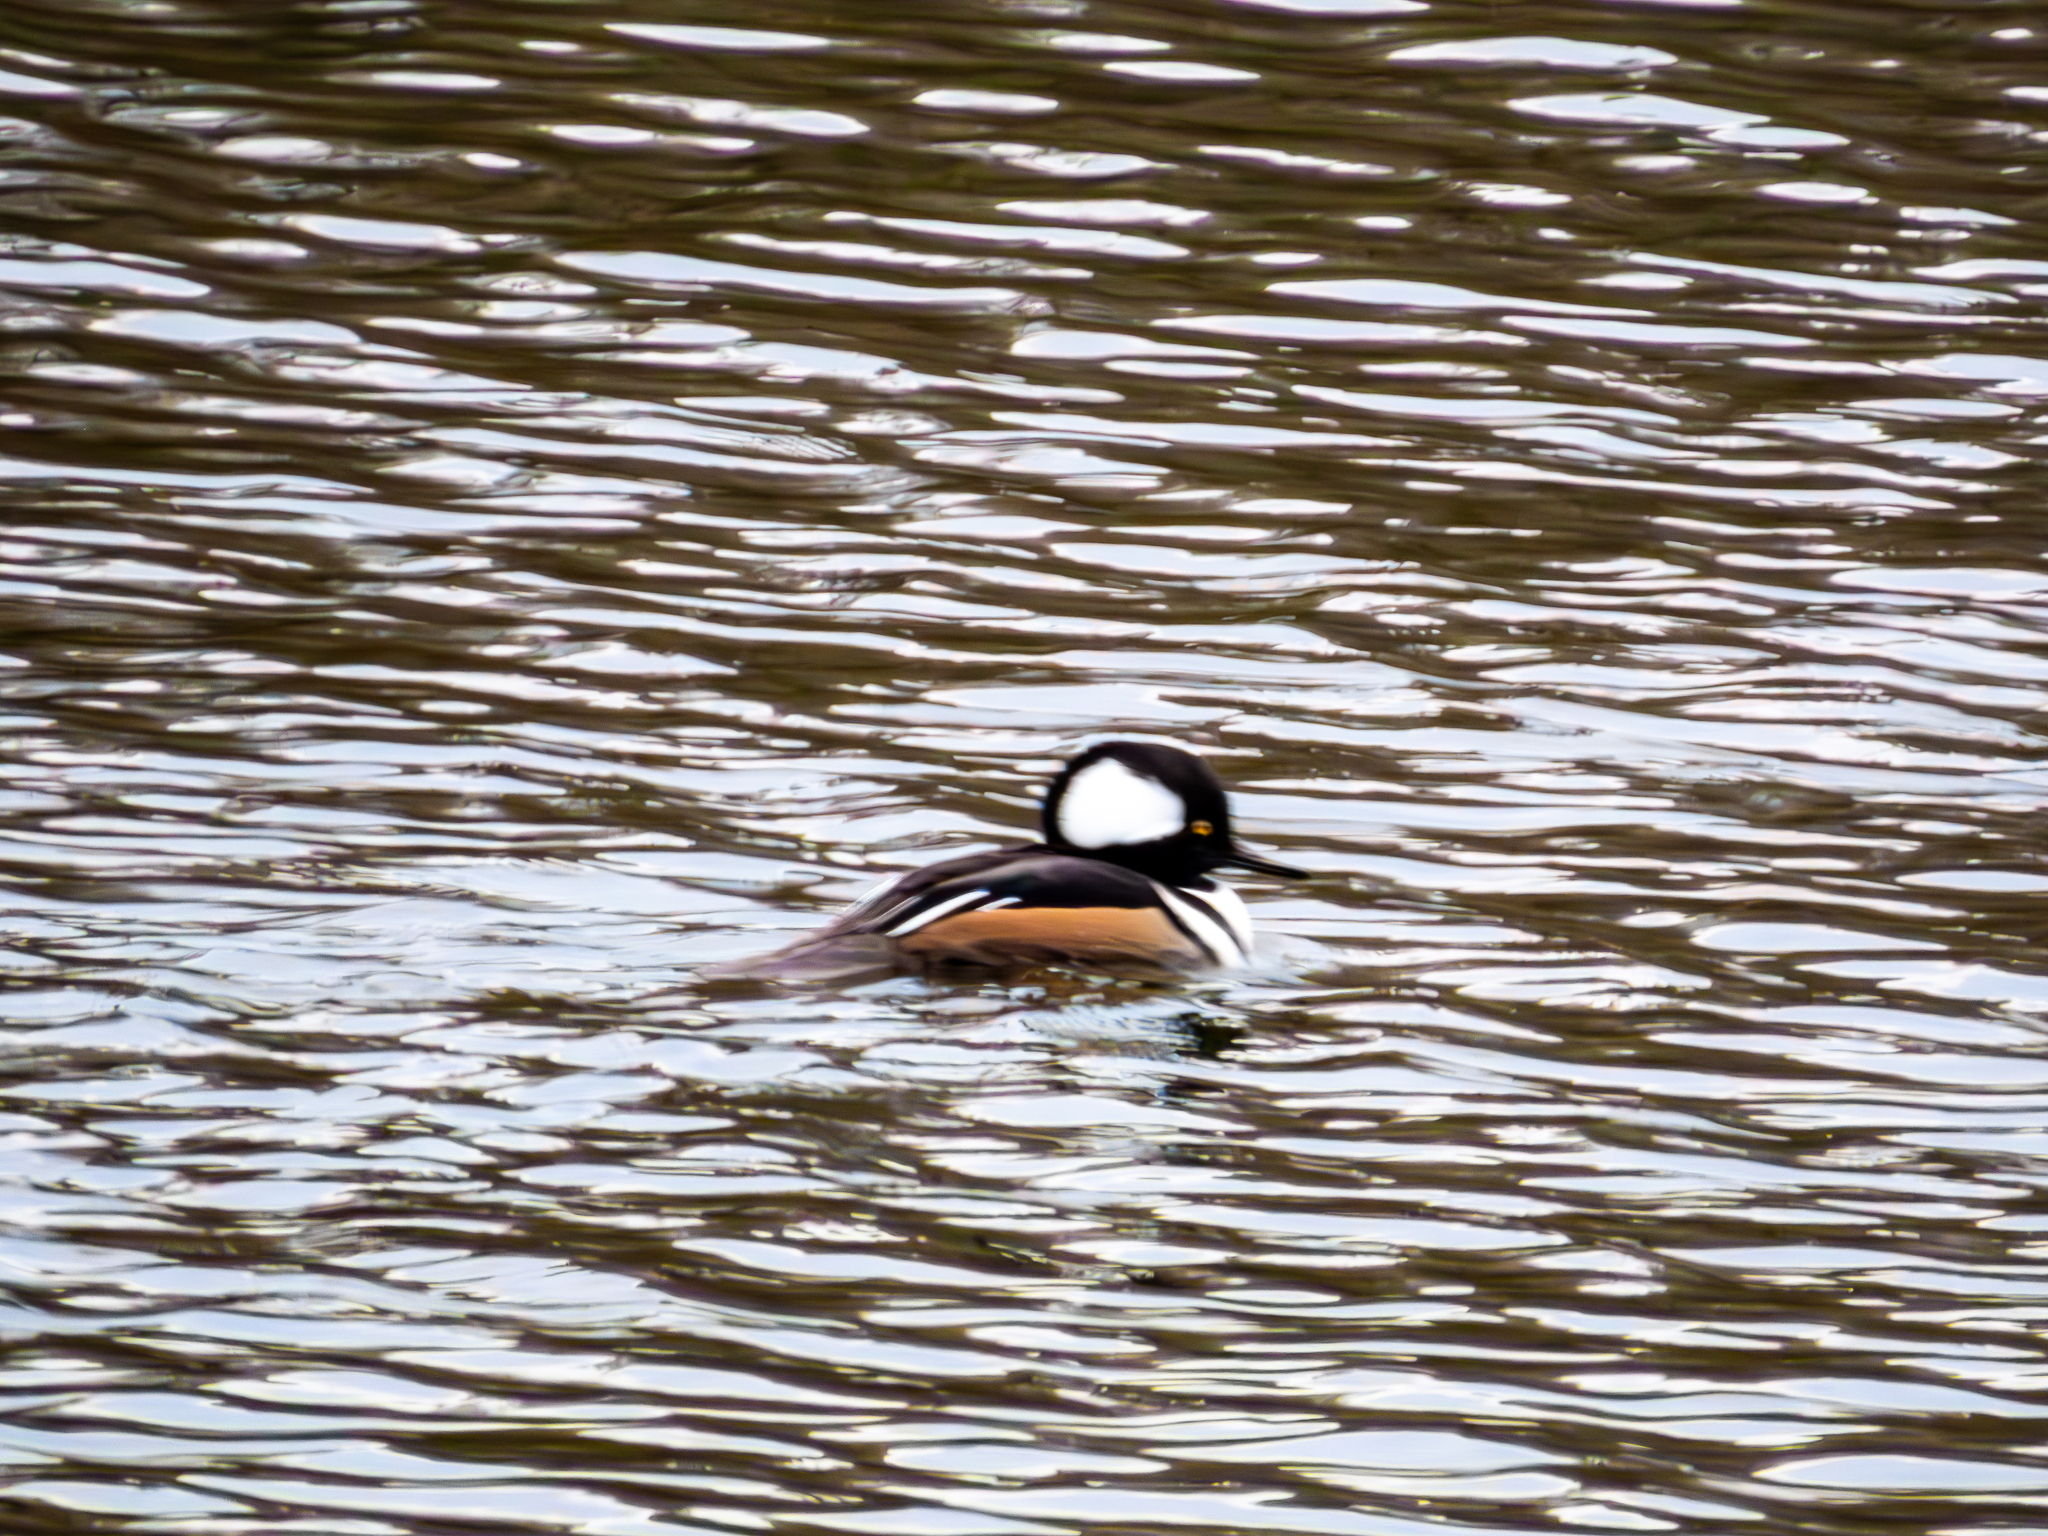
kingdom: Animalia
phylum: Chordata
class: Aves
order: Anseriformes
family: Anatidae
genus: Lophodytes
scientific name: Lophodytes cucullatus
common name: Hooded merganser
